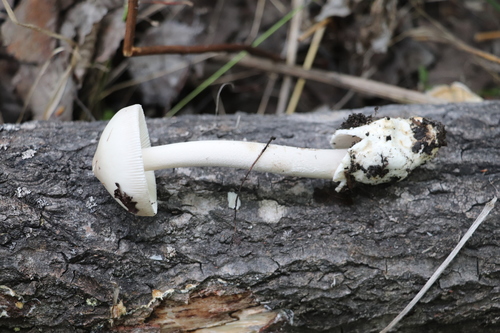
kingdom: Fungi
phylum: Basidiomycota
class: Agaricomycetes
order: Agaricales
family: Amanitaceae
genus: Amanita
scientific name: Amanita
